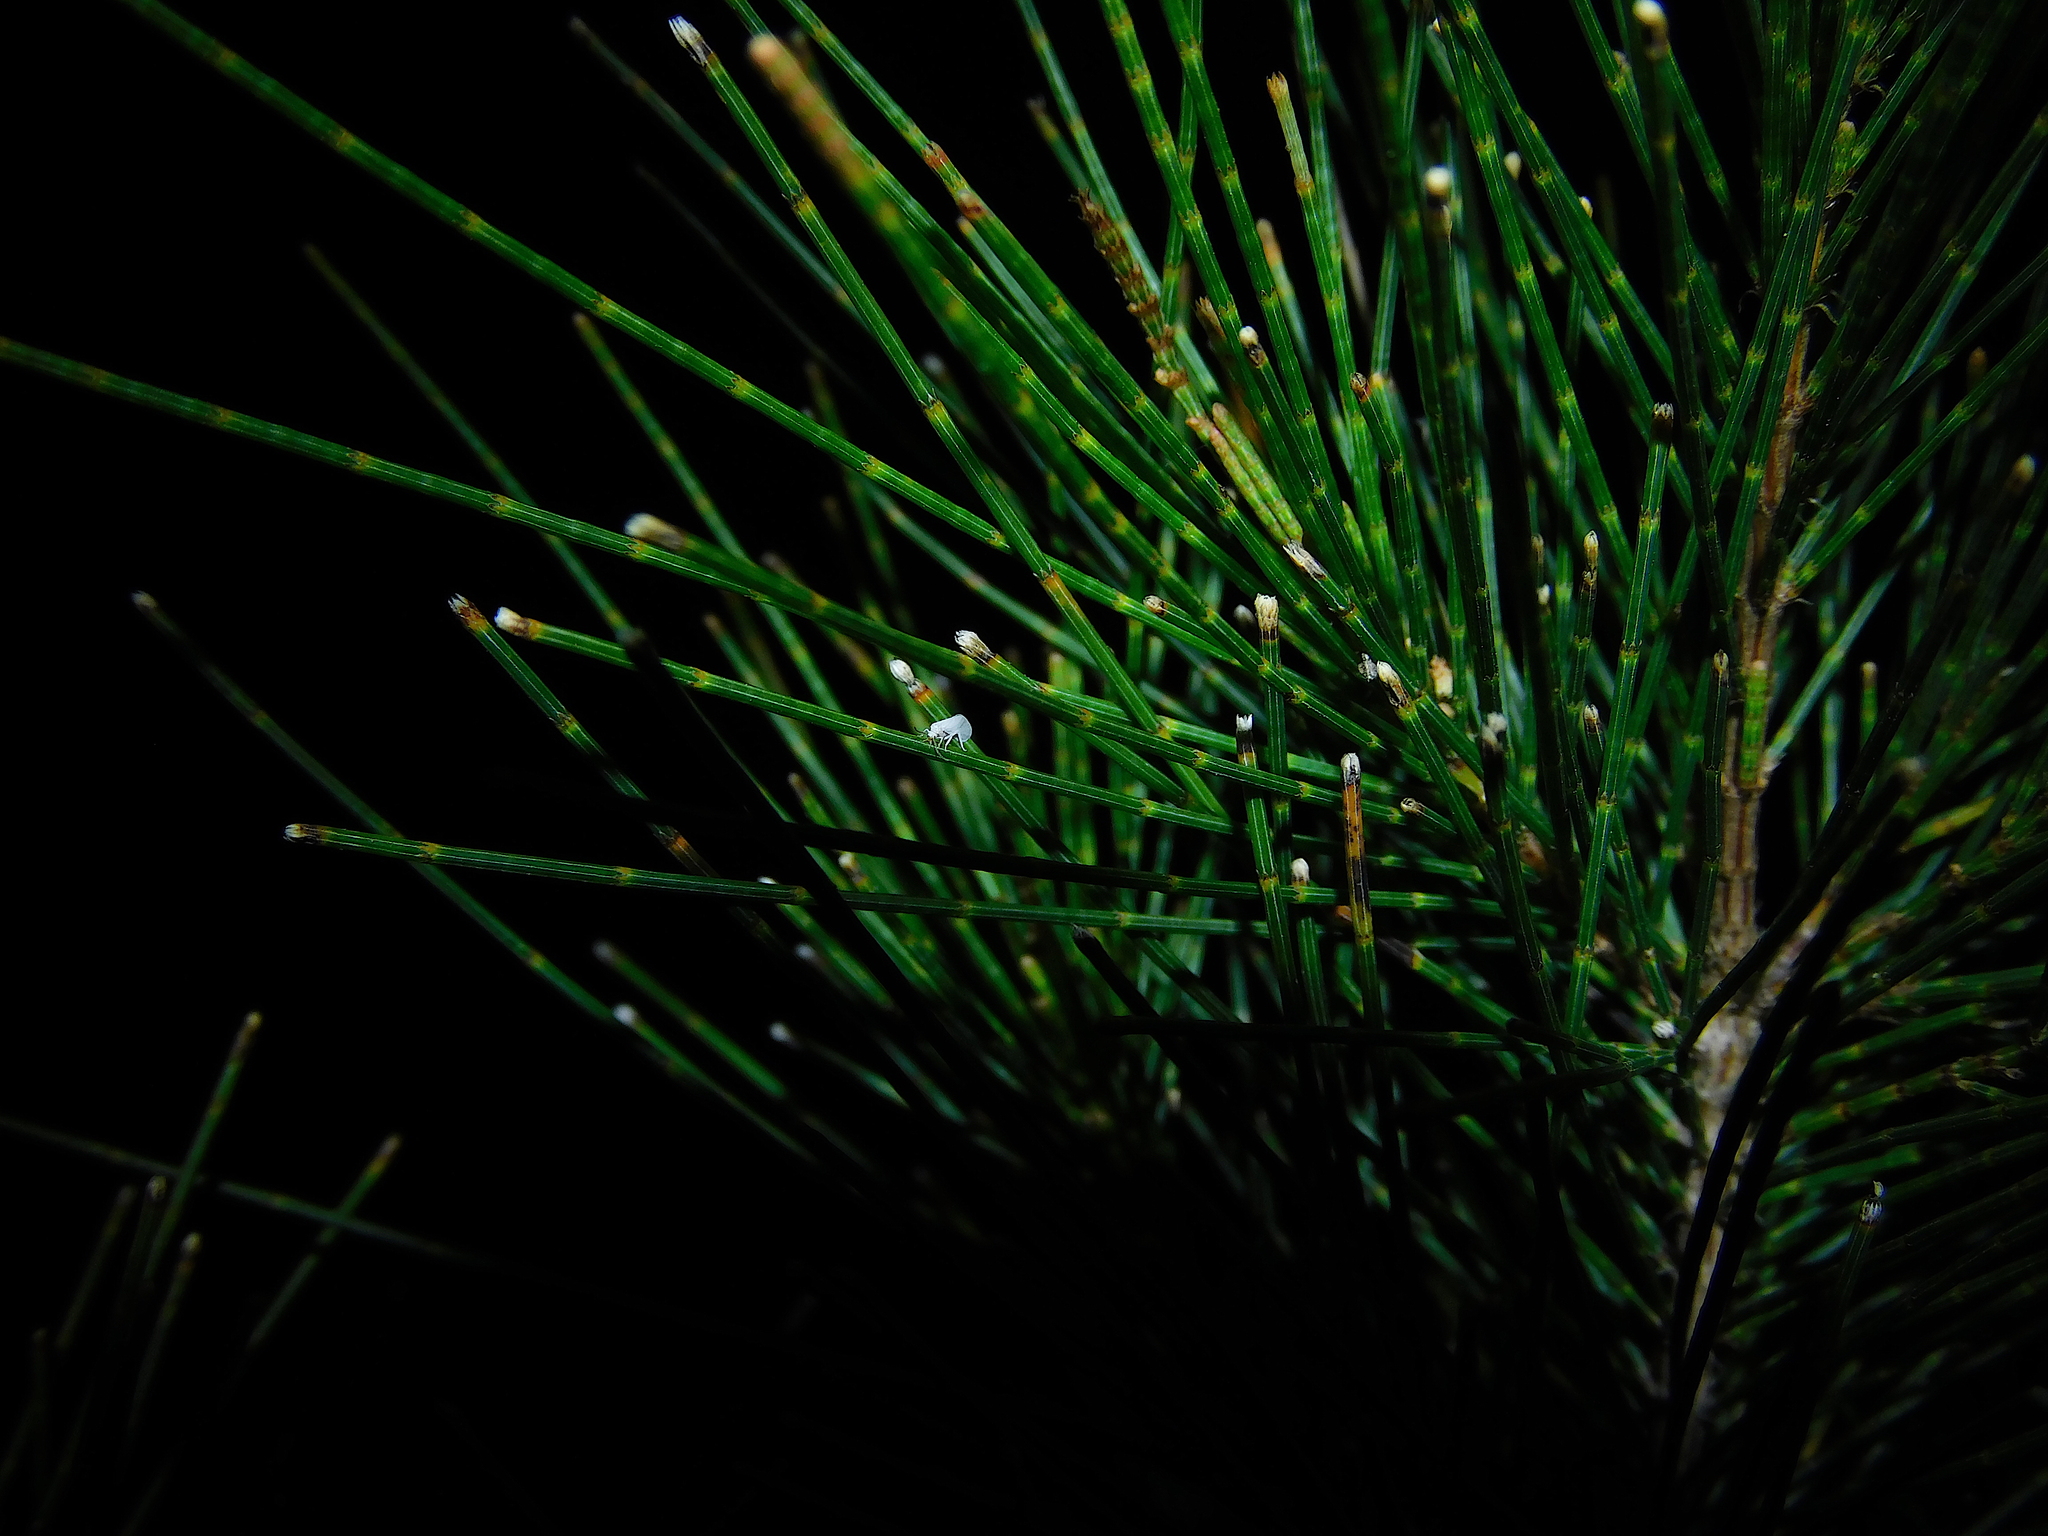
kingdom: Animalia
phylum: Arthropoda
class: Insecta
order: Neuroptera
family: Coniopterygidae
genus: Cryptoscenea
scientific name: Cryptoscenea australiensis
